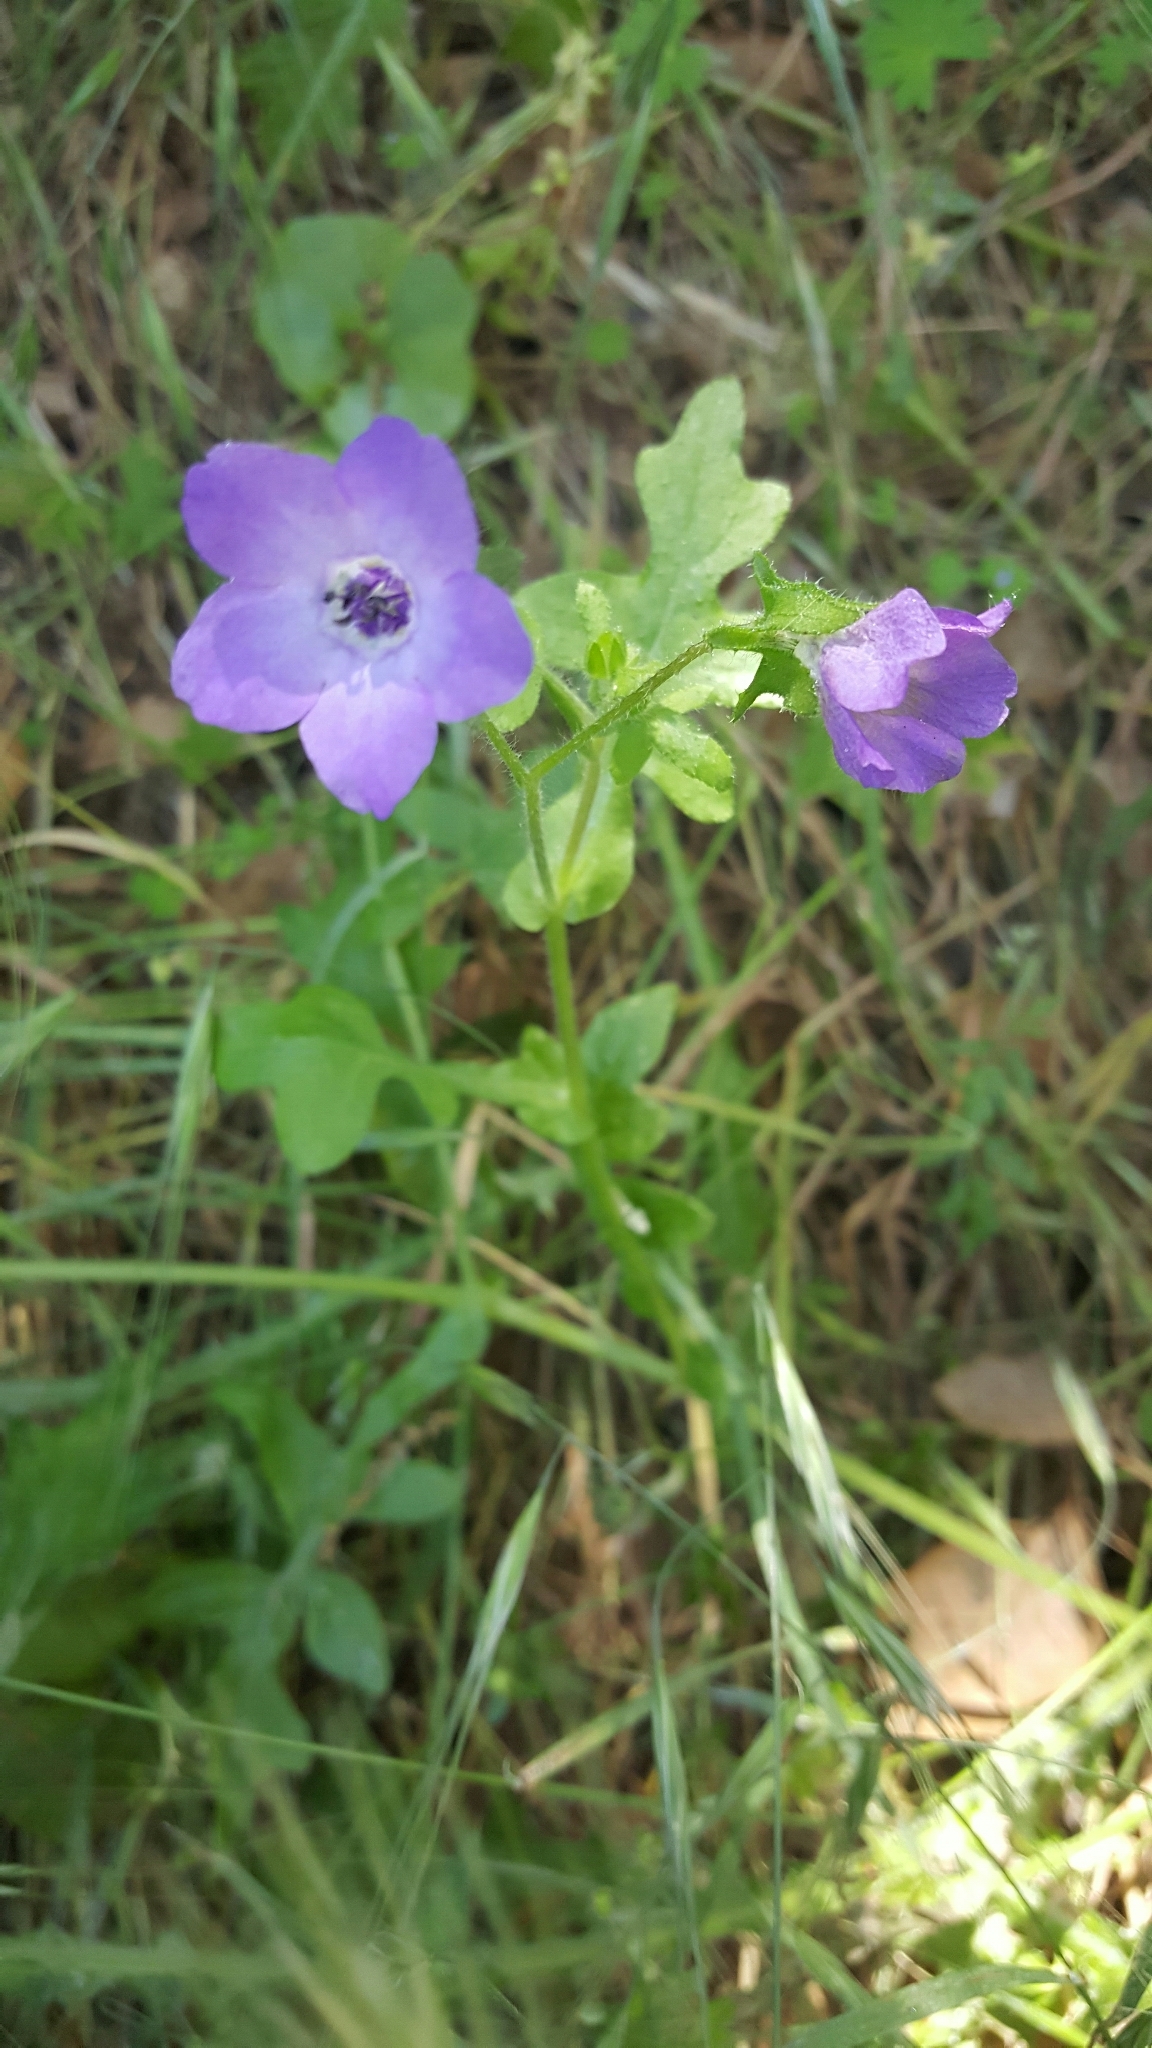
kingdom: Plantae
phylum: Tracheophyta
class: Magnoliopsida
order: Boraginales
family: Hydrophyllaceae
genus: Pholistoma
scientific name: Pholistoma auritum
